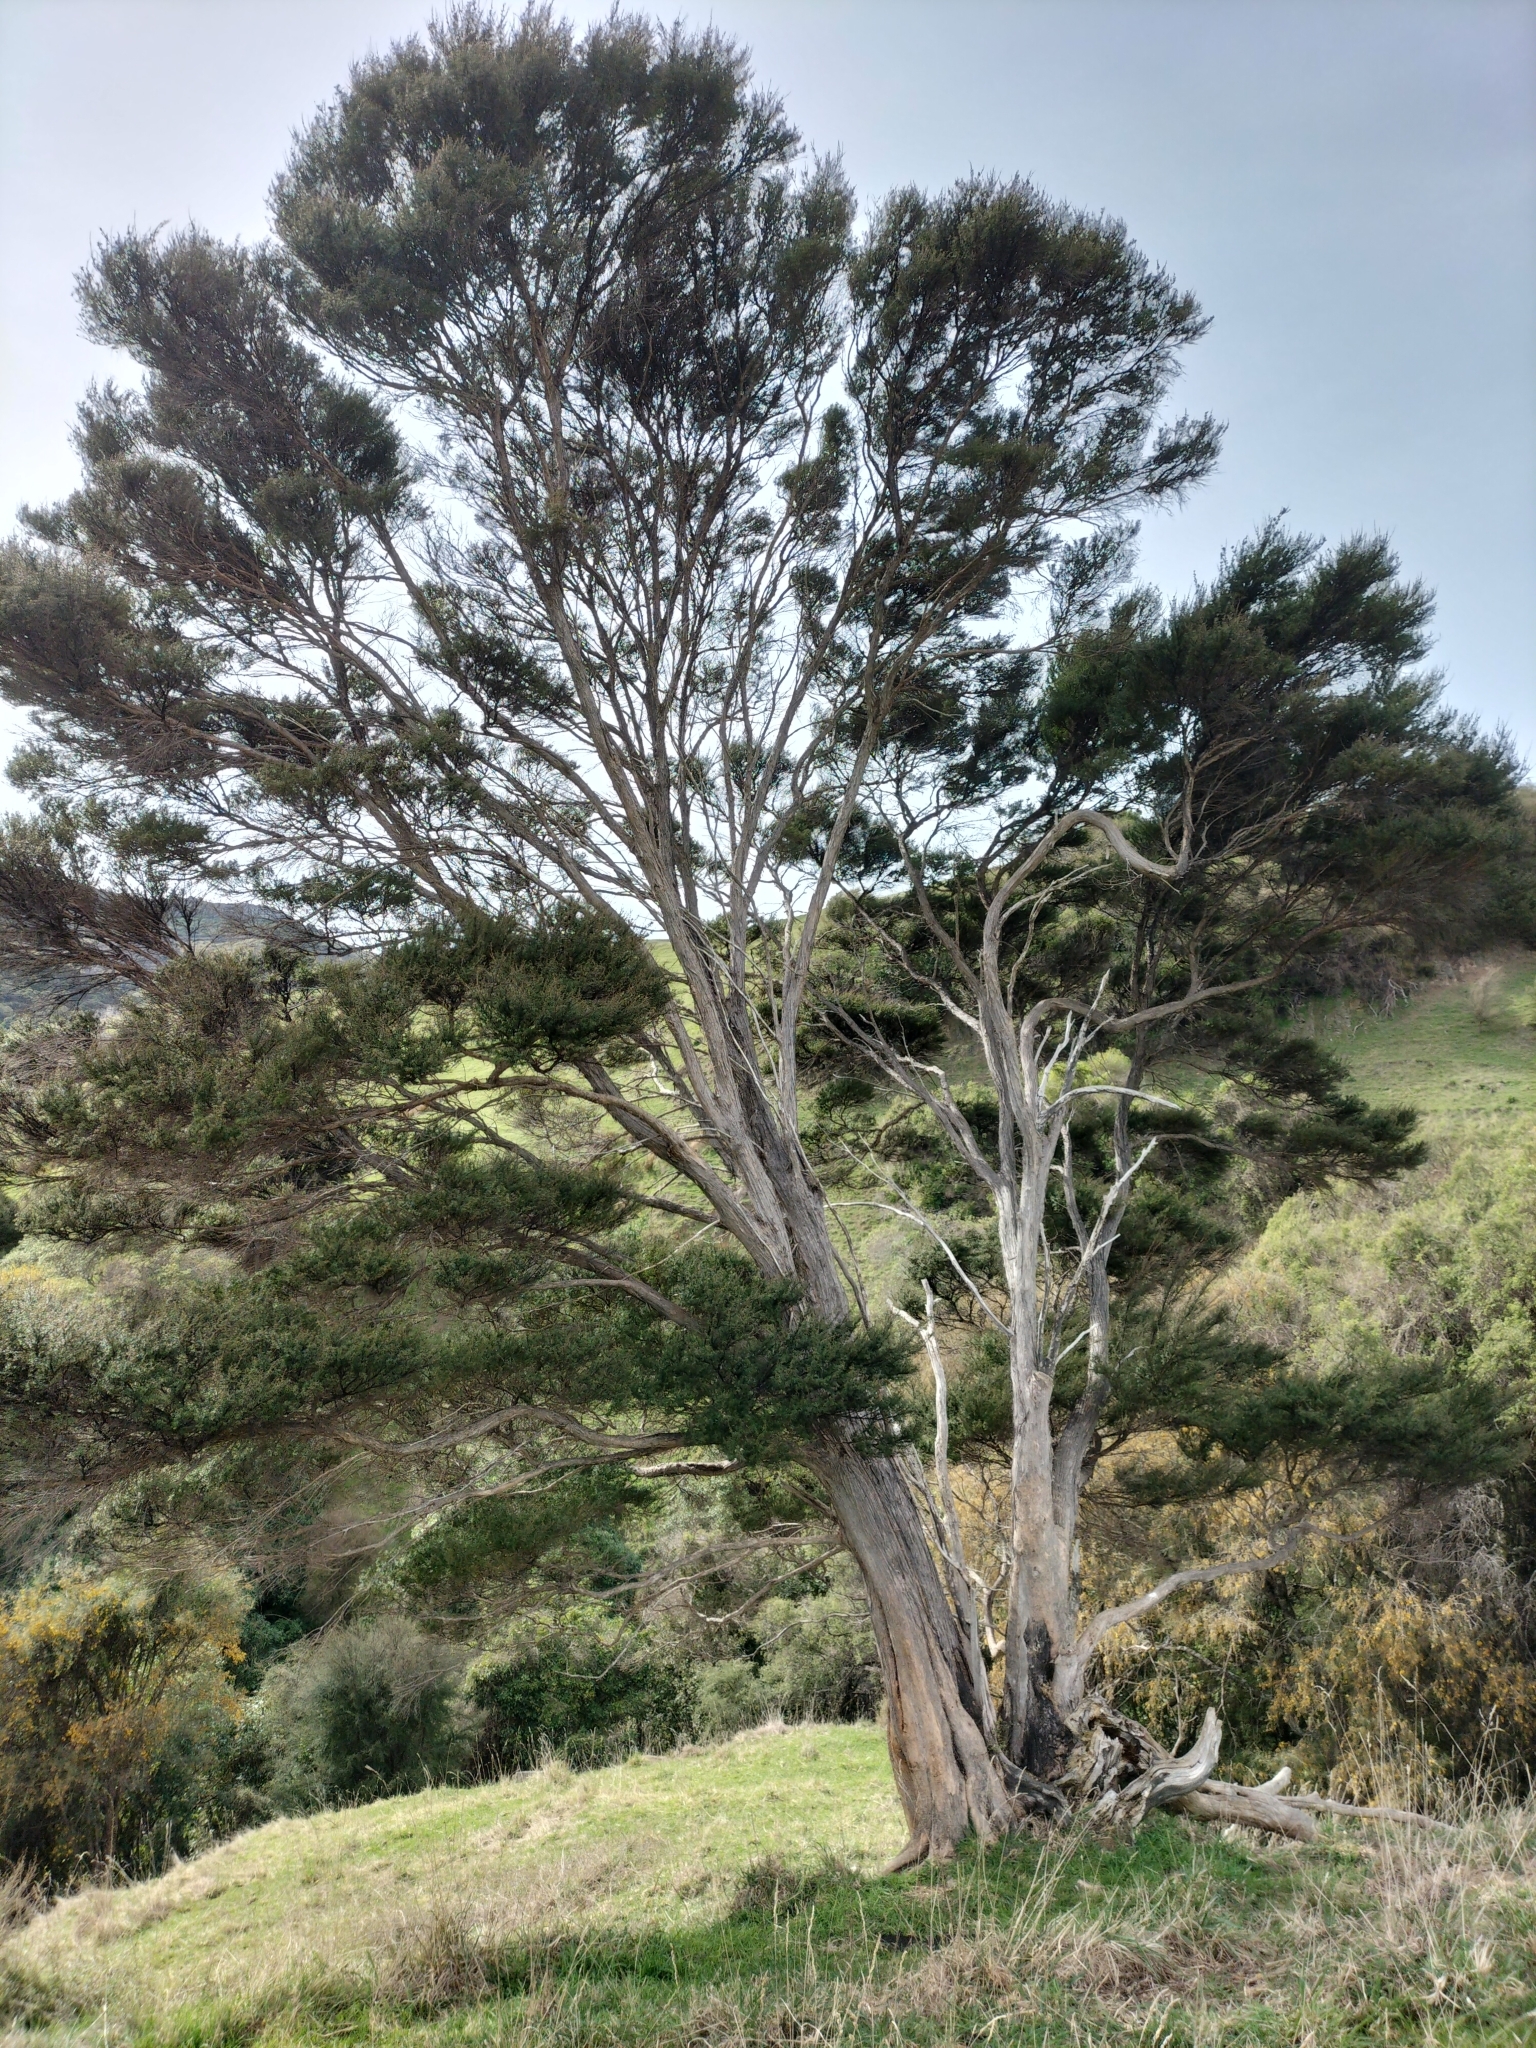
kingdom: Plantae
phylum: Tracheophyta
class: Magnoliopsida
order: Myrtales
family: Myrtaceae
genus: Kunzea
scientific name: Kunzea robusta
